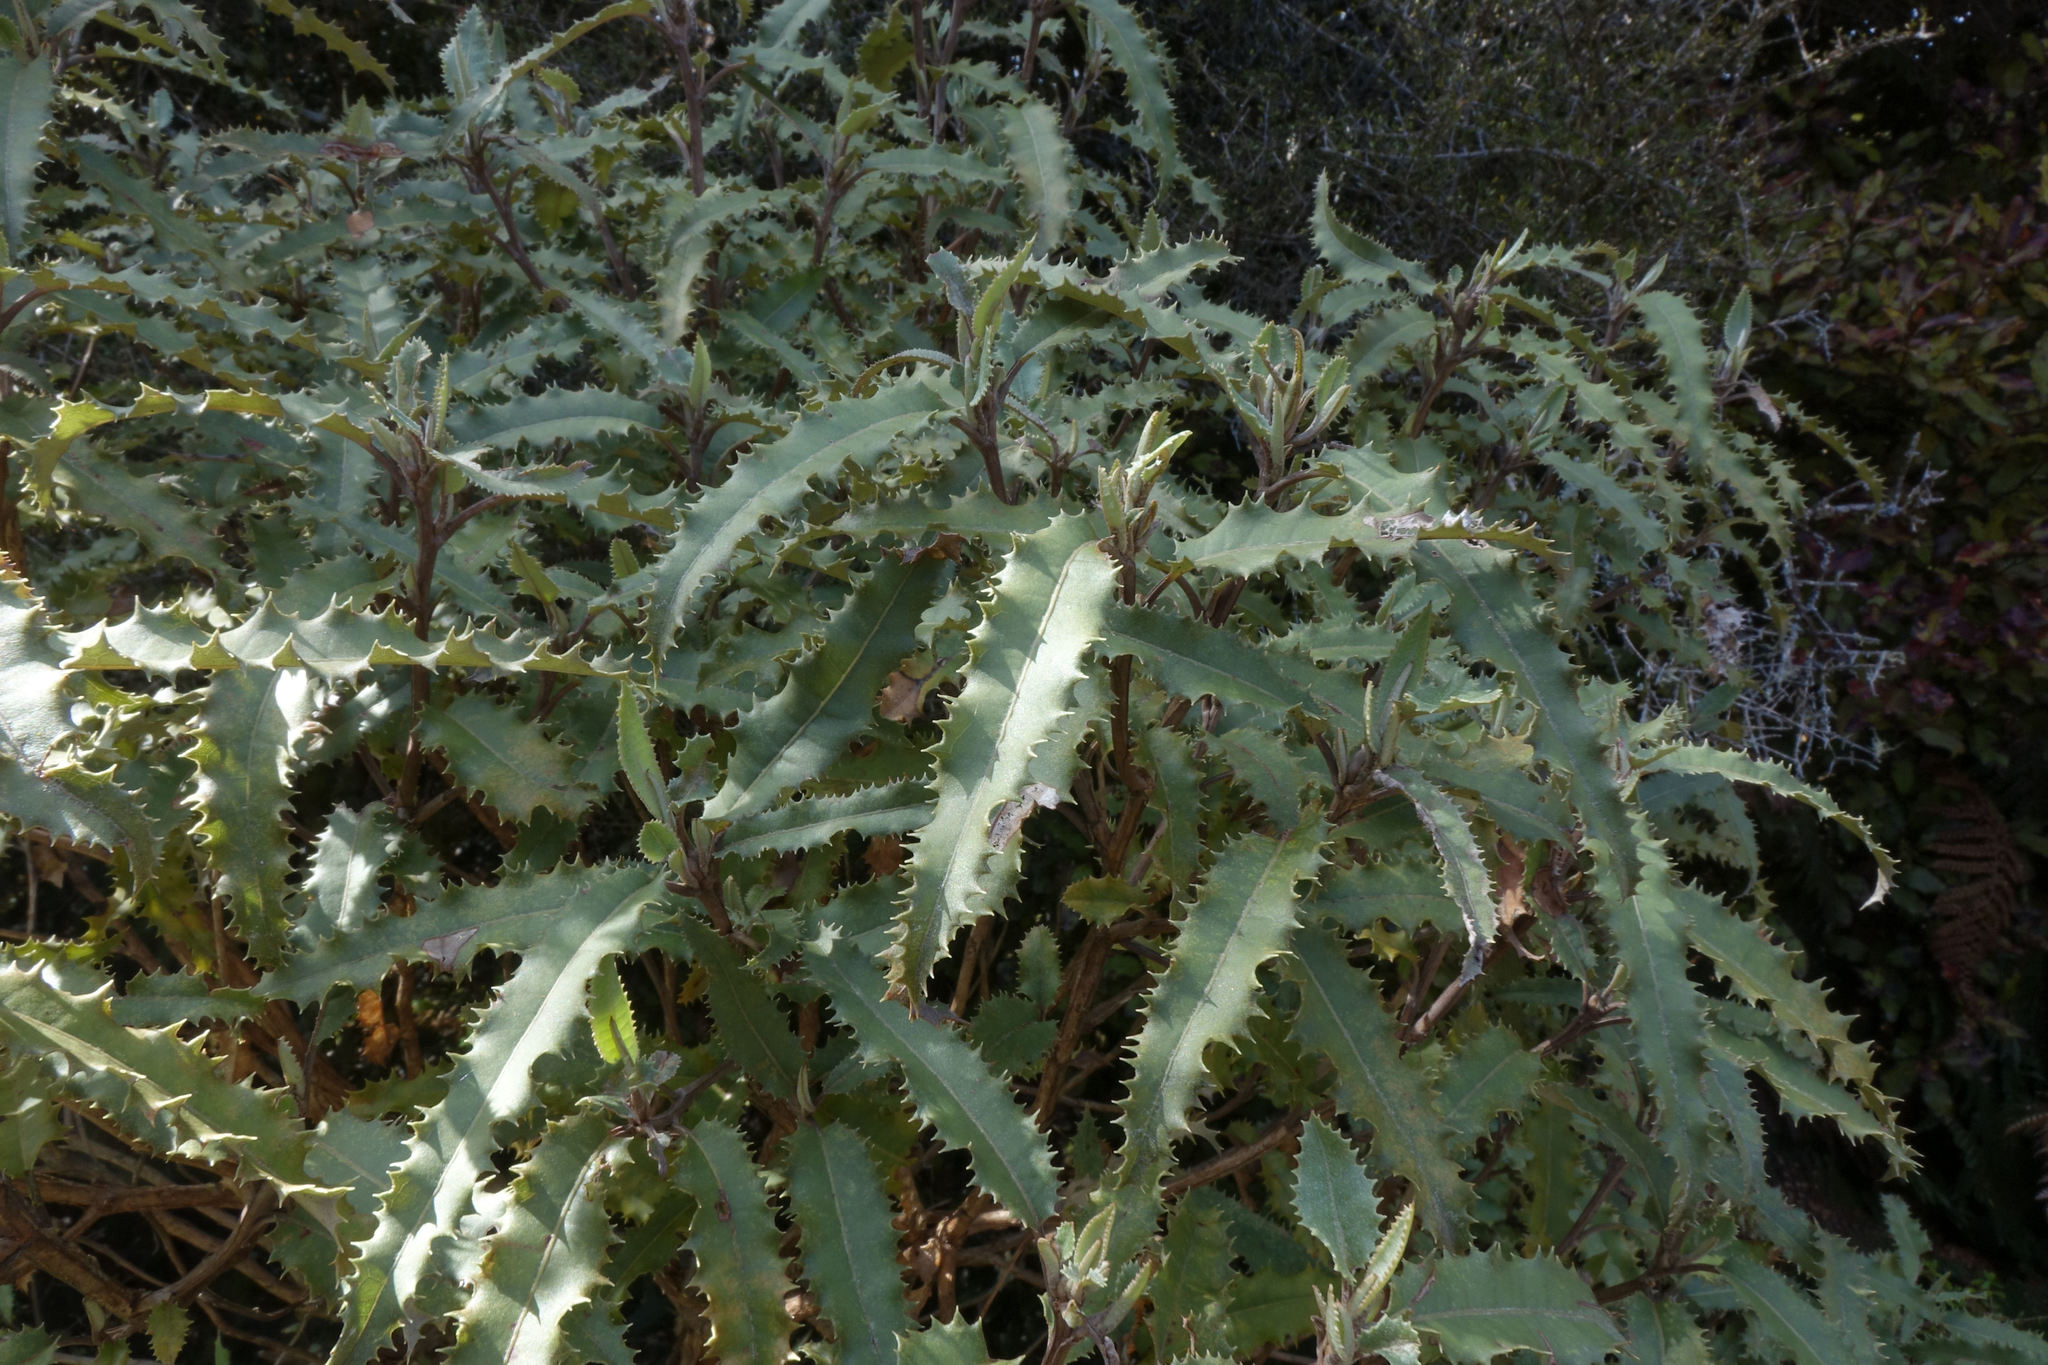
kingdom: Plantae
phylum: Tracheophyta
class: Magnoliopsida
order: Asterales
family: Asteraceae
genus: Olearia
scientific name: Olearia ilicifolia
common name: Maori-holly
